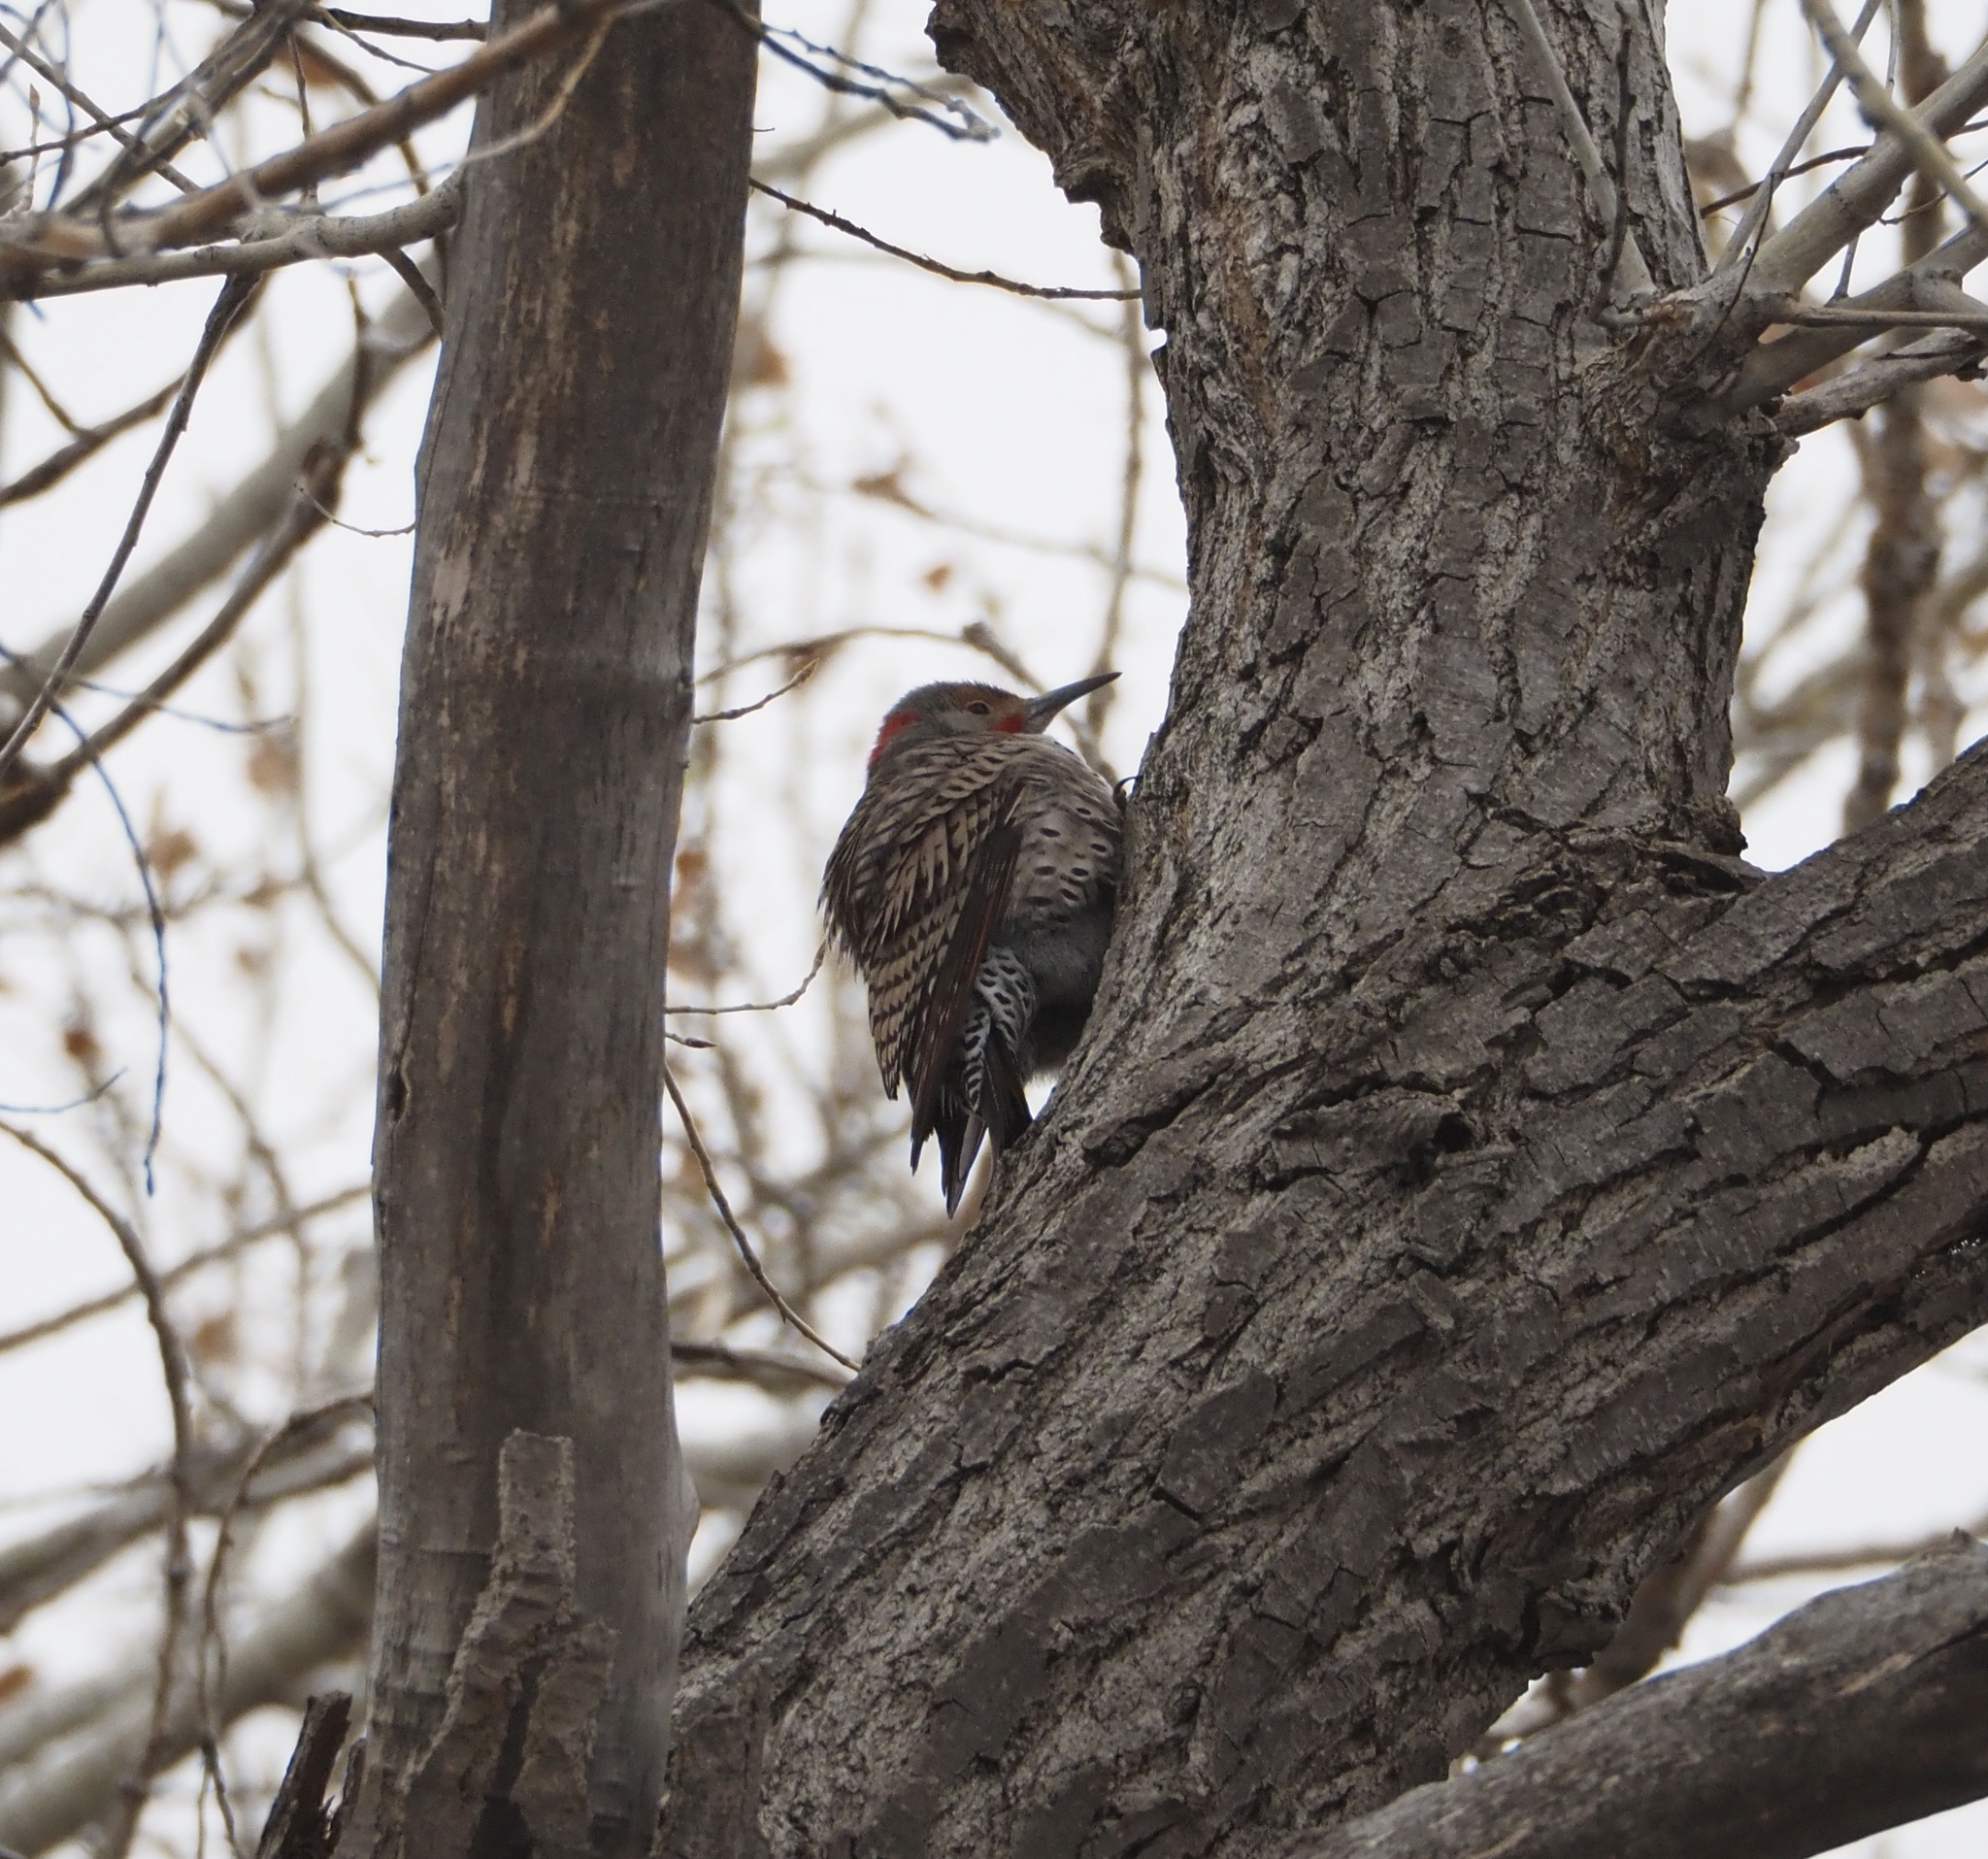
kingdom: Animalia
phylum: Chordata
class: Aves
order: Piciformes
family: Picidae
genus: Colaptes
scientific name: Colaptes
